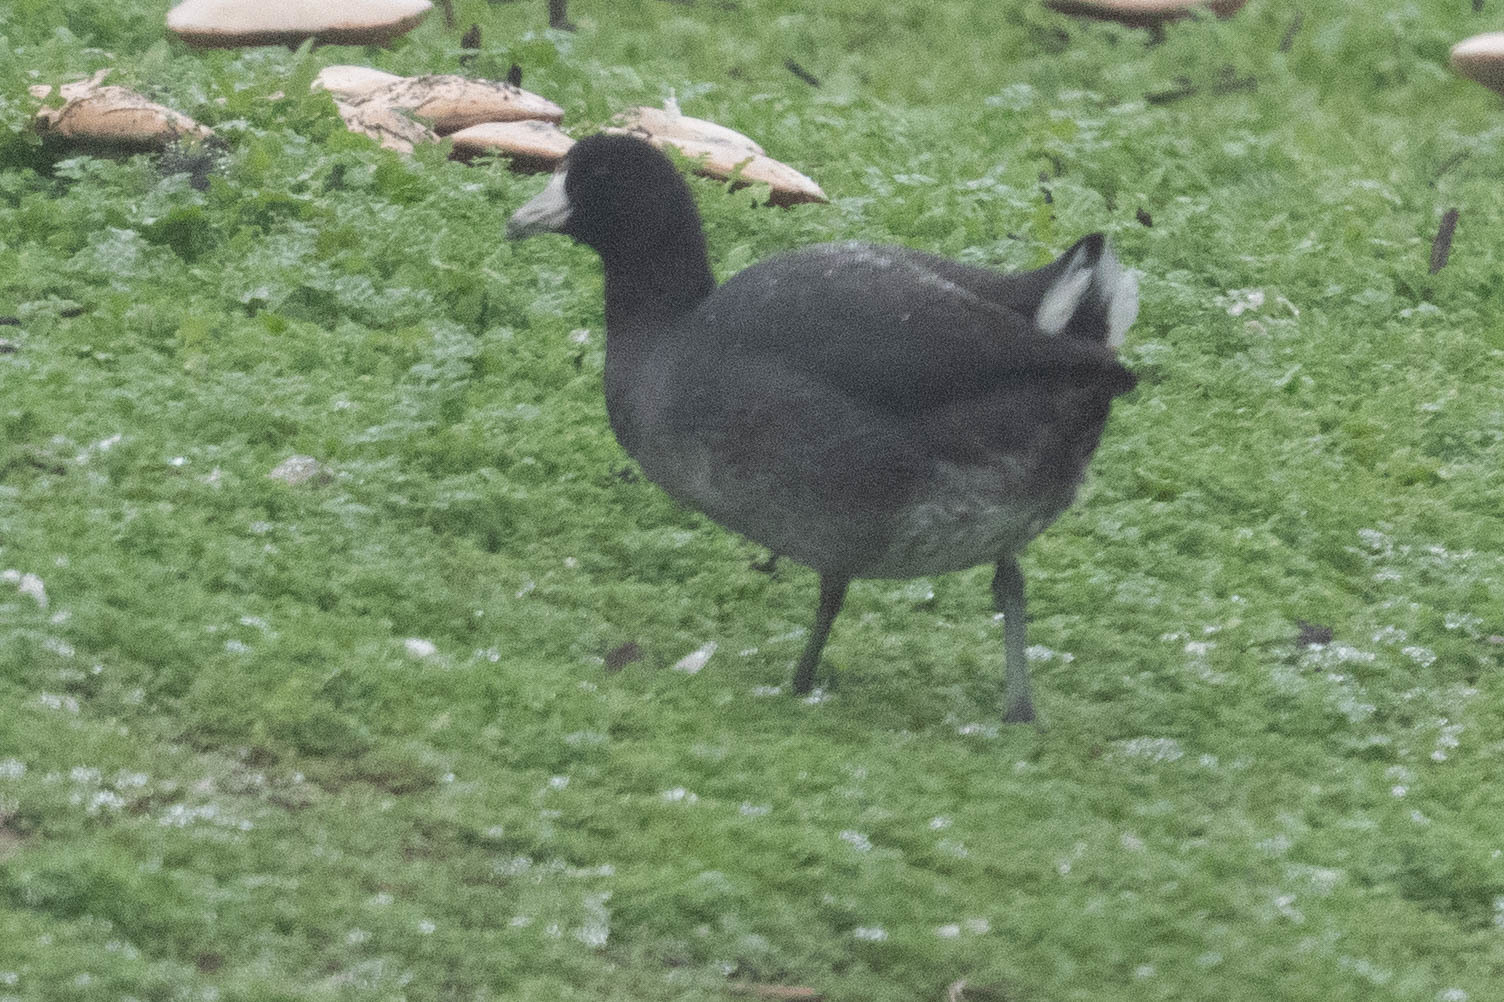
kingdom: Animalia
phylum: Chordata
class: Aves
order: Gruiformes
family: Rallidae
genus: Fulica
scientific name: Fulica americana
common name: American coot
